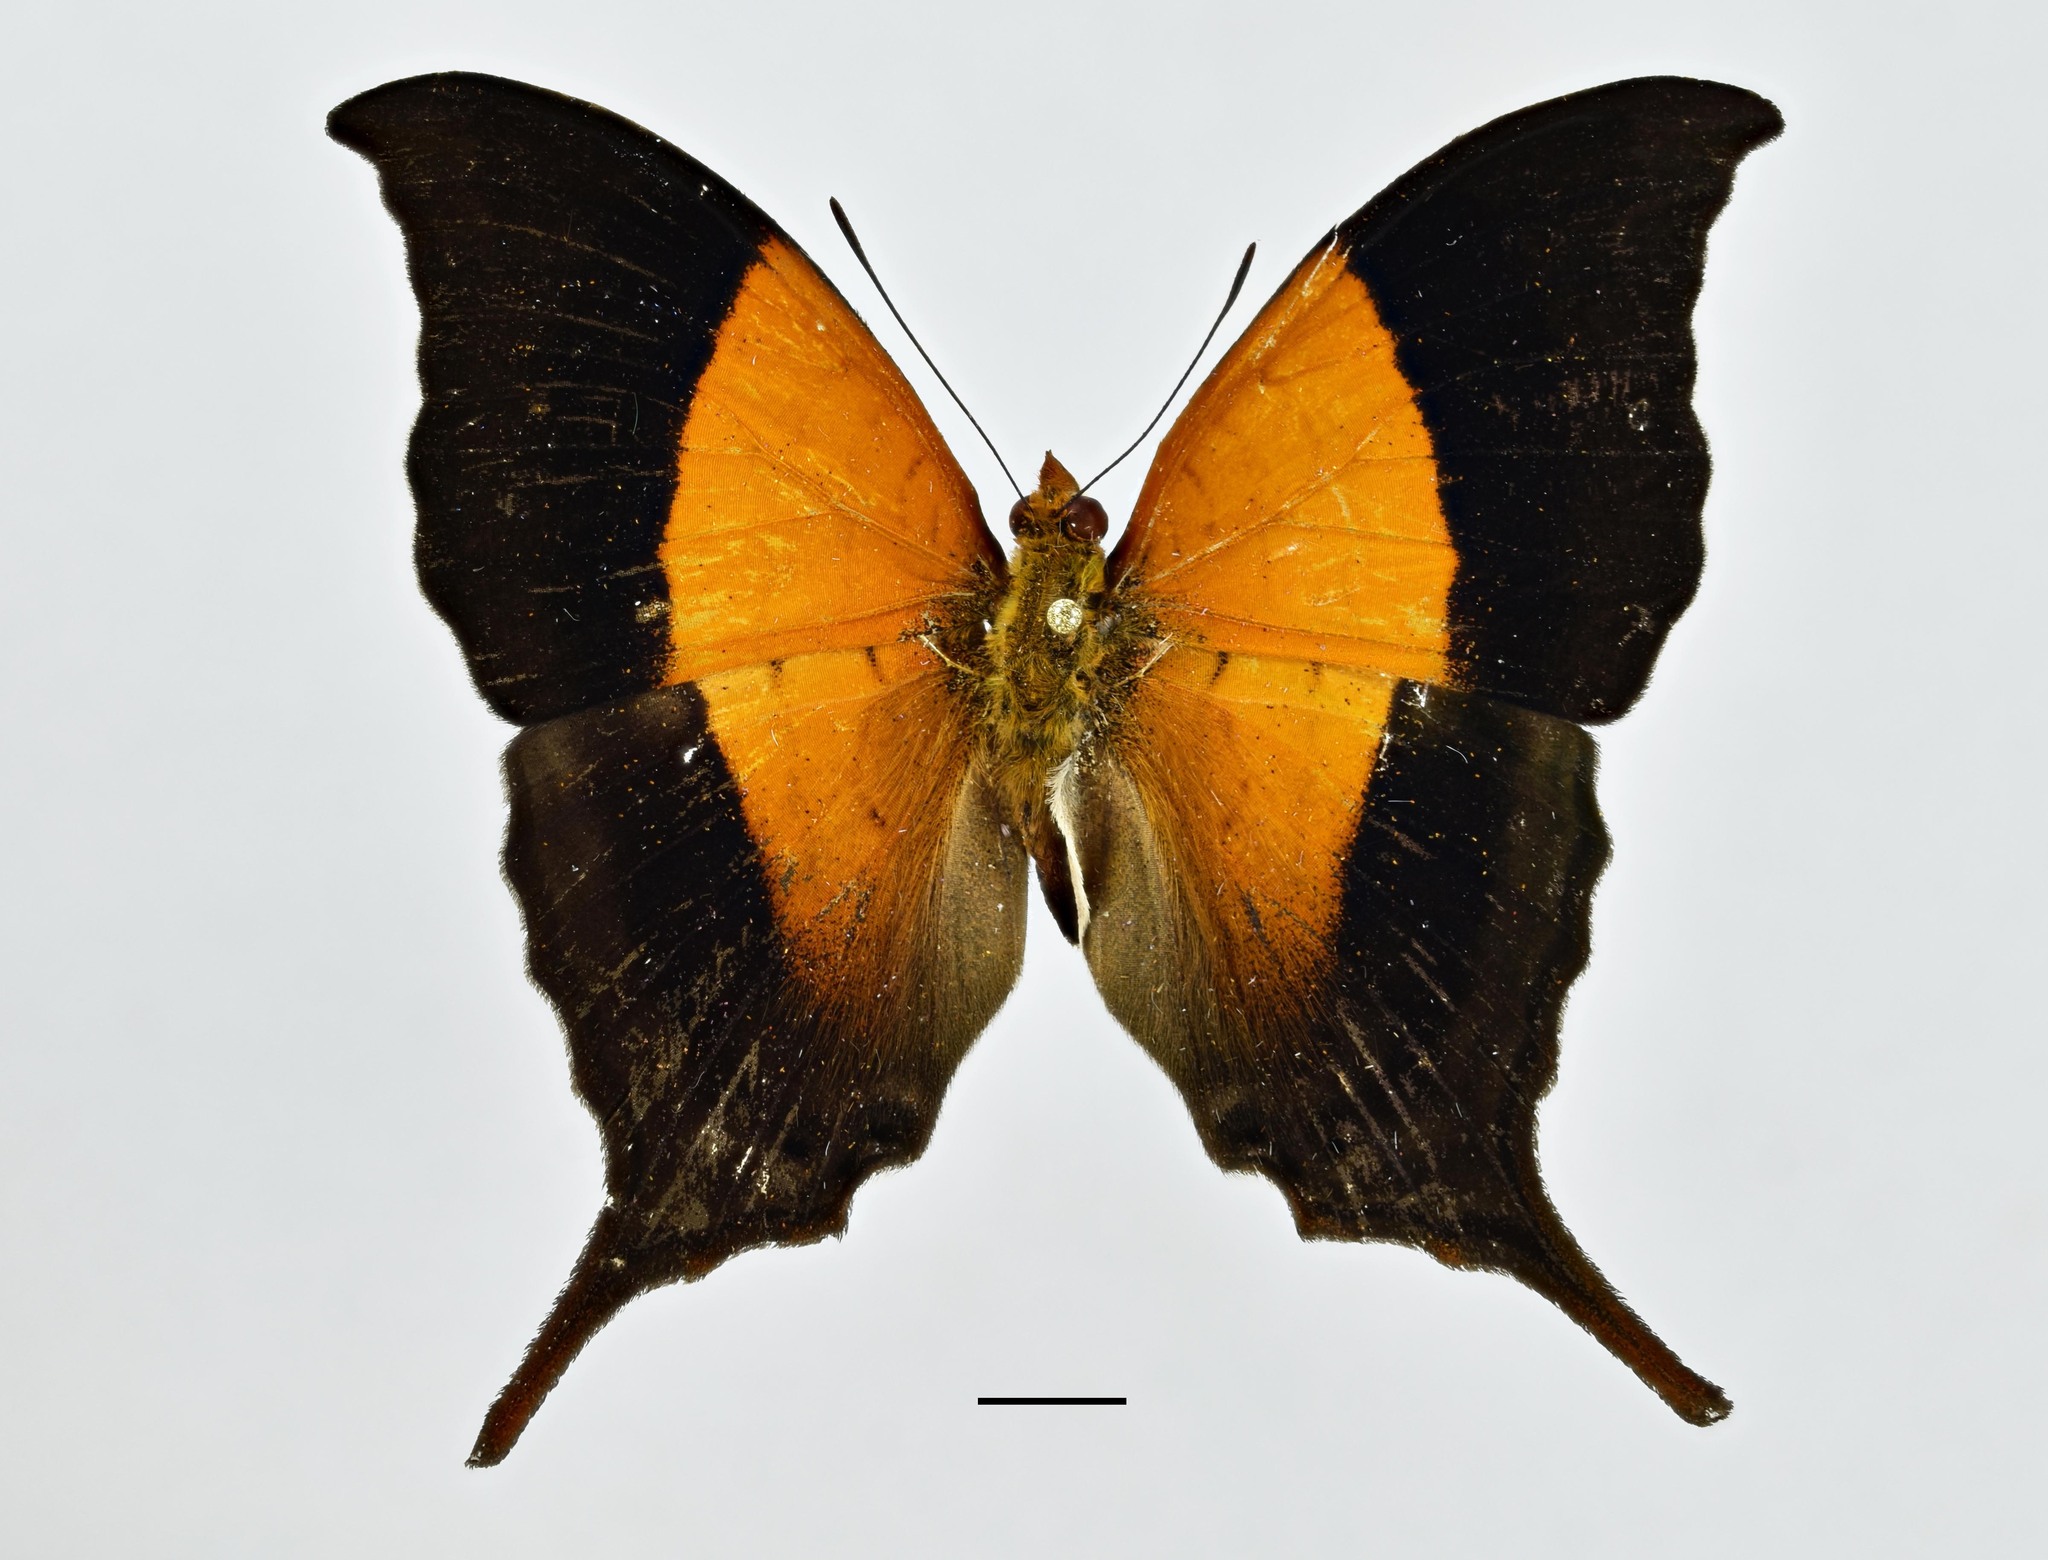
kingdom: Animalia
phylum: Arthropoda
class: Insecta
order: Lepidoptera
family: Nymphalidae
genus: Marpesia
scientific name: Marpesia furcula
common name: Sunset daggerwing
